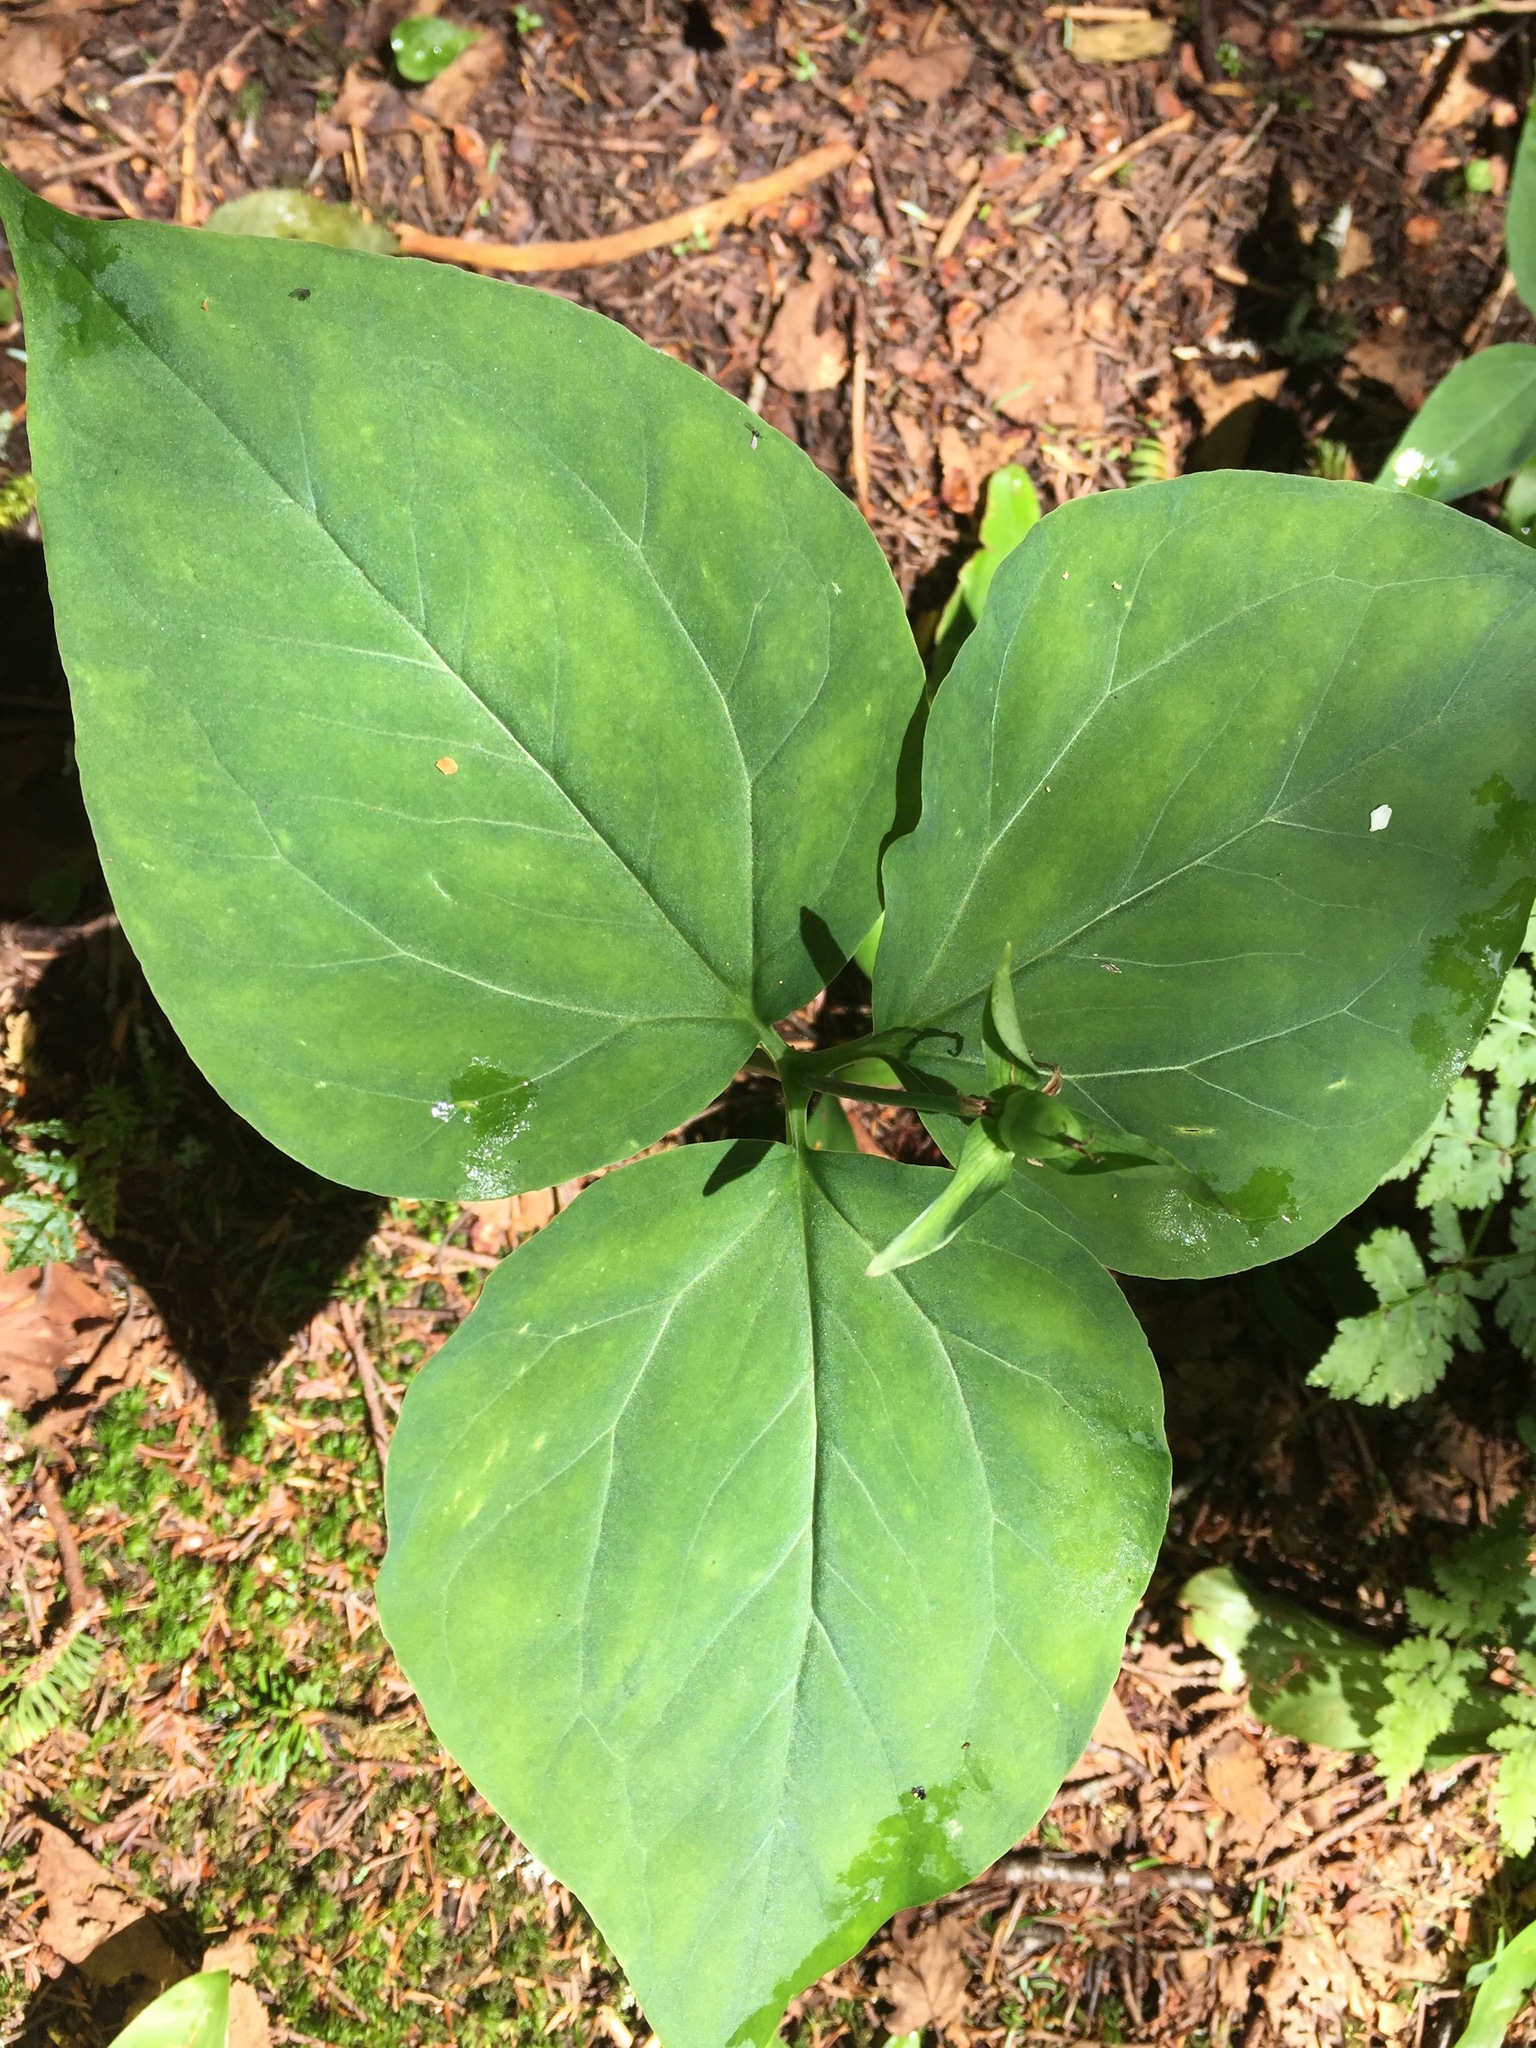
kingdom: Plantae
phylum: Tracheophyta
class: Liliopsida
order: Liliales
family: Melanthiaceae
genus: Trillium
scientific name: Trillium undulatum
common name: Paint trillium
